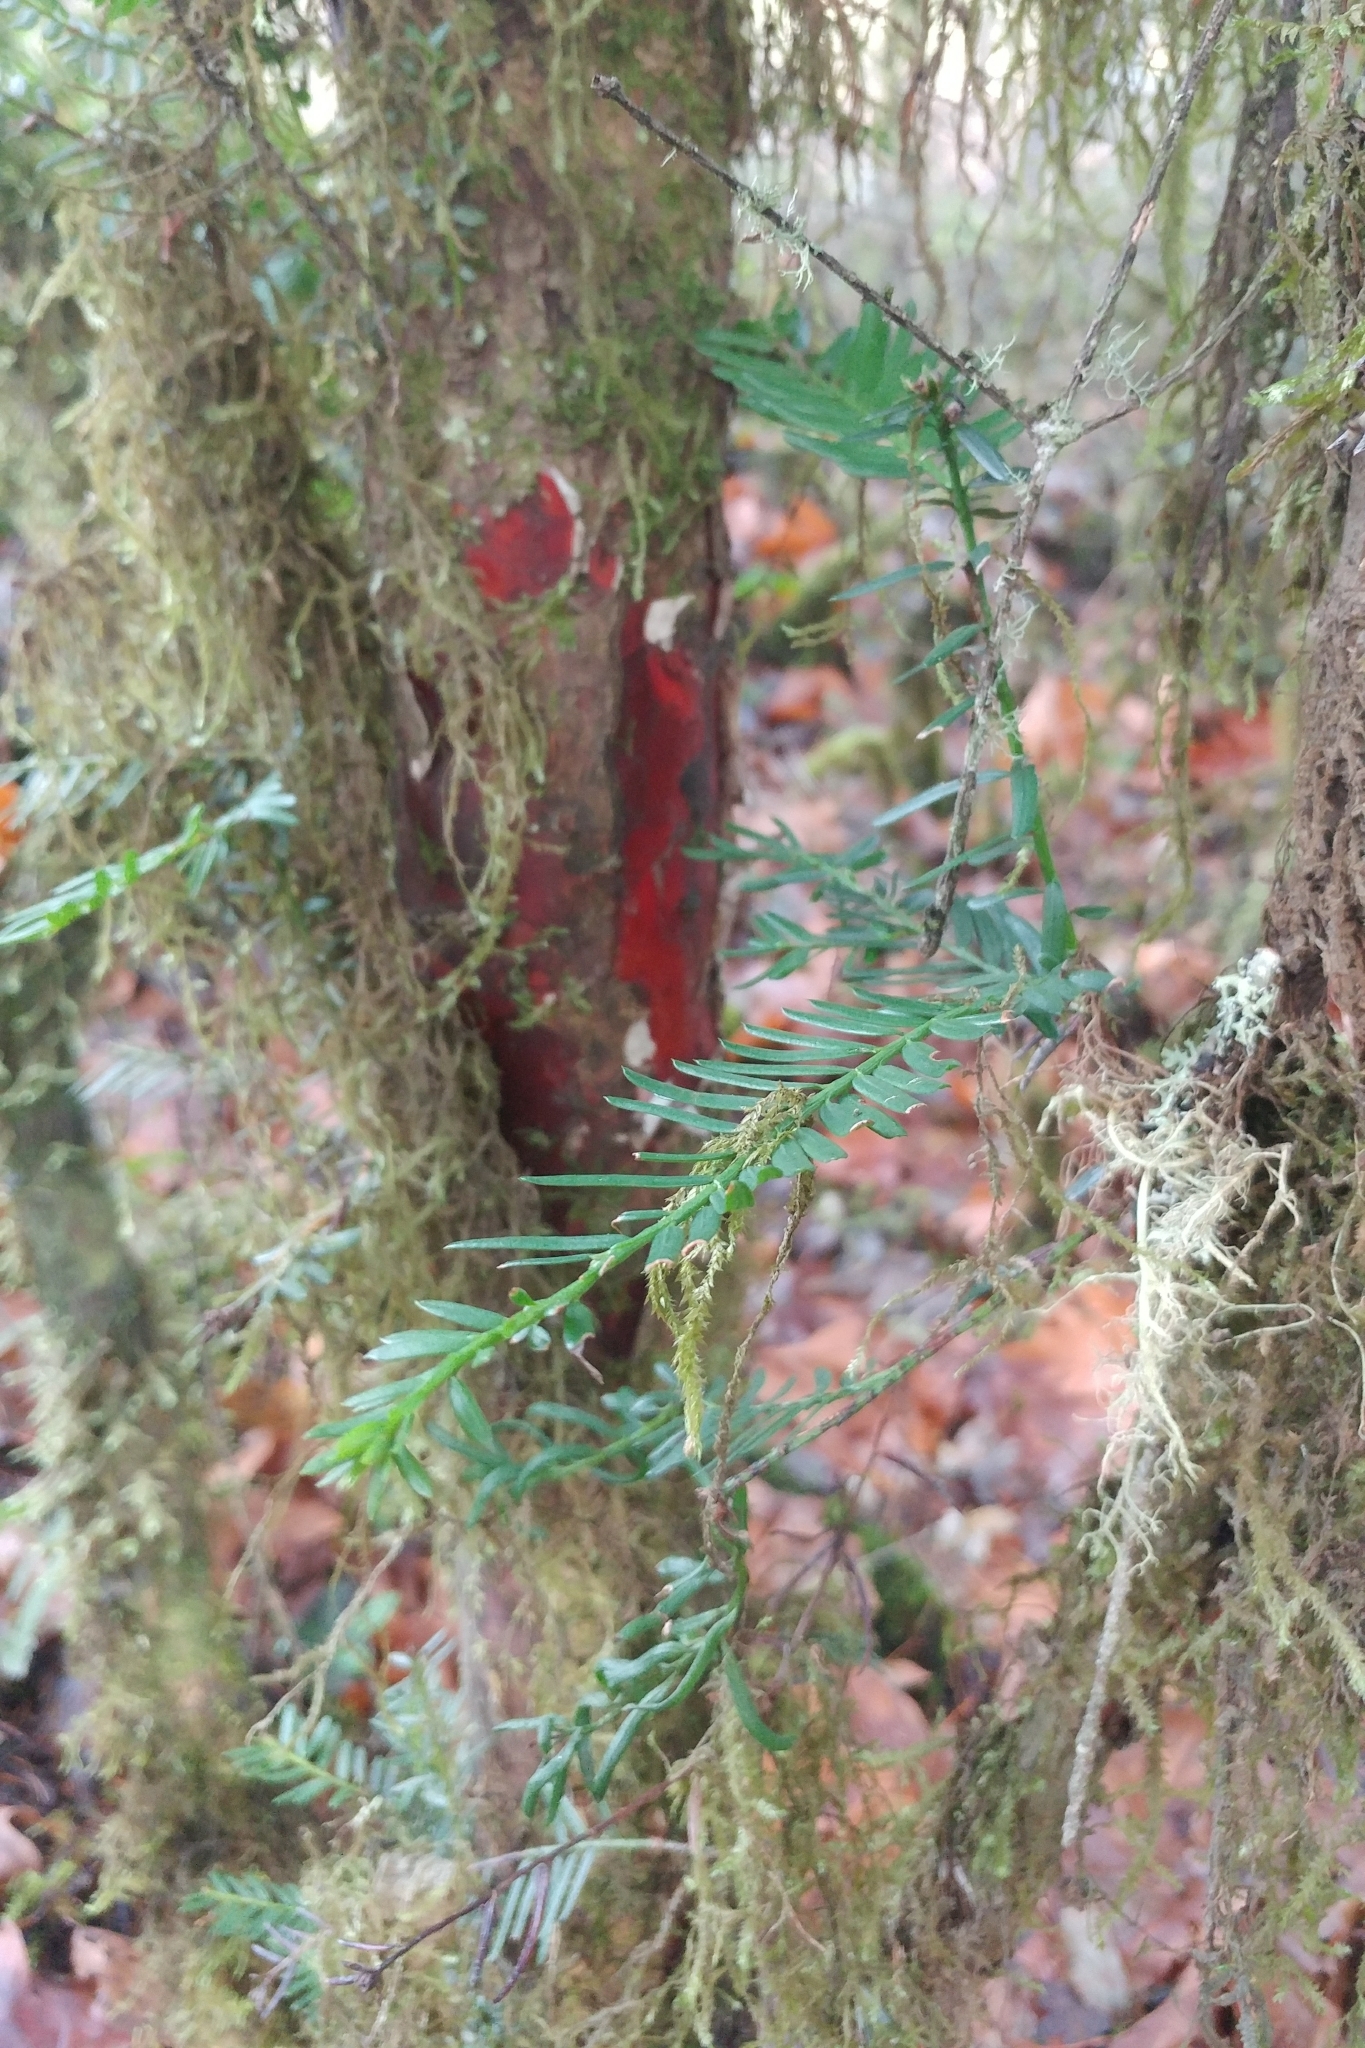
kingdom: Plantae
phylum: Tracheophyta
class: Pinopsida
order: Pinales
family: Taxaceae
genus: Taxus
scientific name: Taxus brevifolia
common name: Pacific yew
